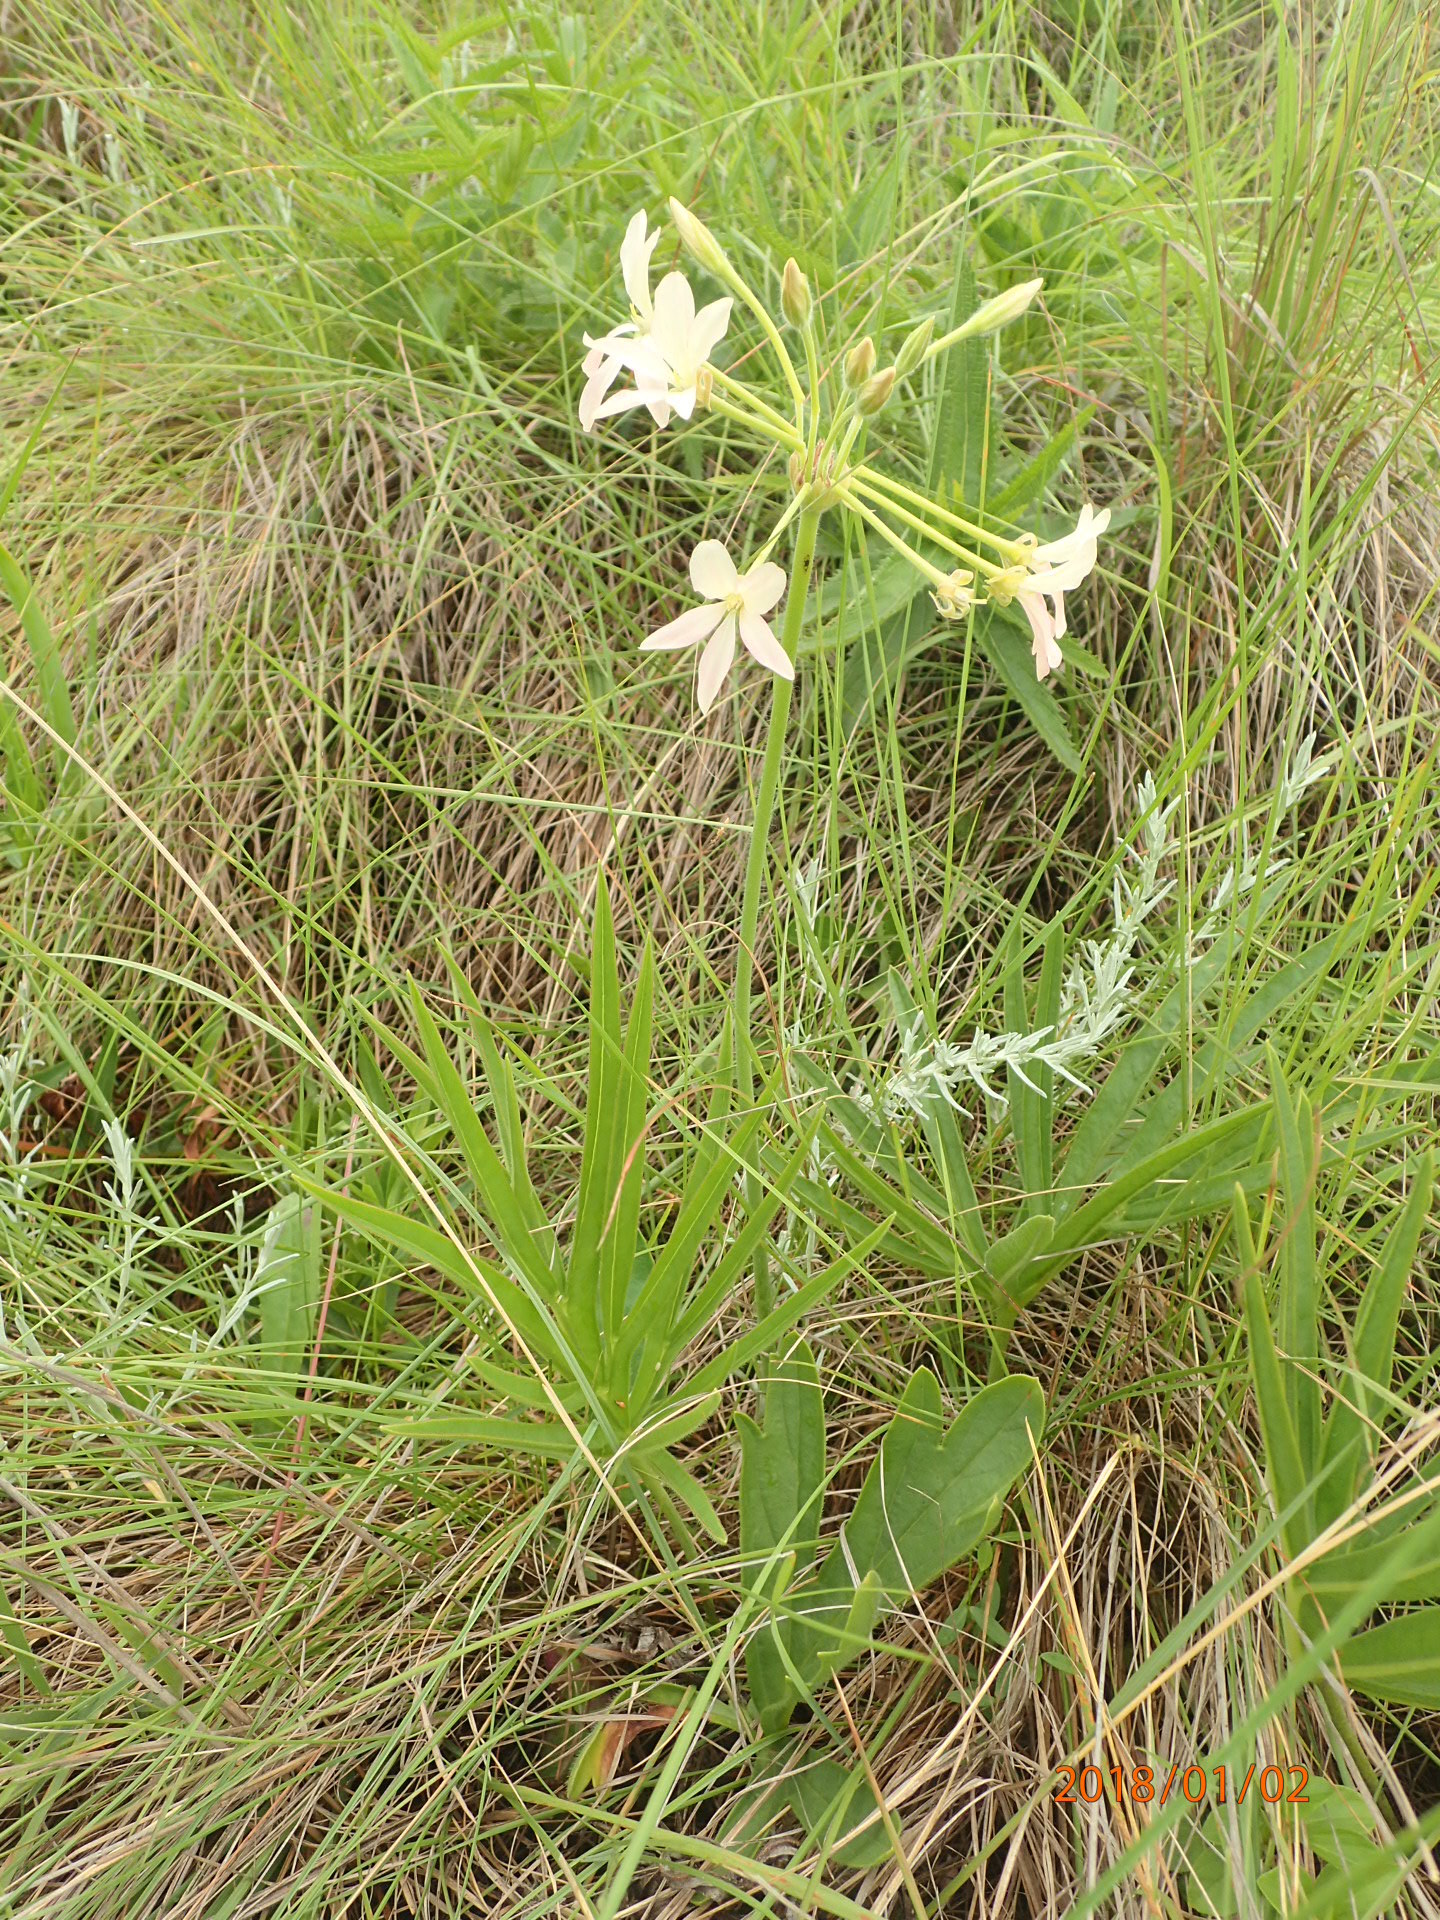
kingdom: Plantae
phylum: Tracheophyta
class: Magnoliopsida
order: Geraniales
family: Geraniaceae
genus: Pelargonium
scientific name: Pelargonium luridum
